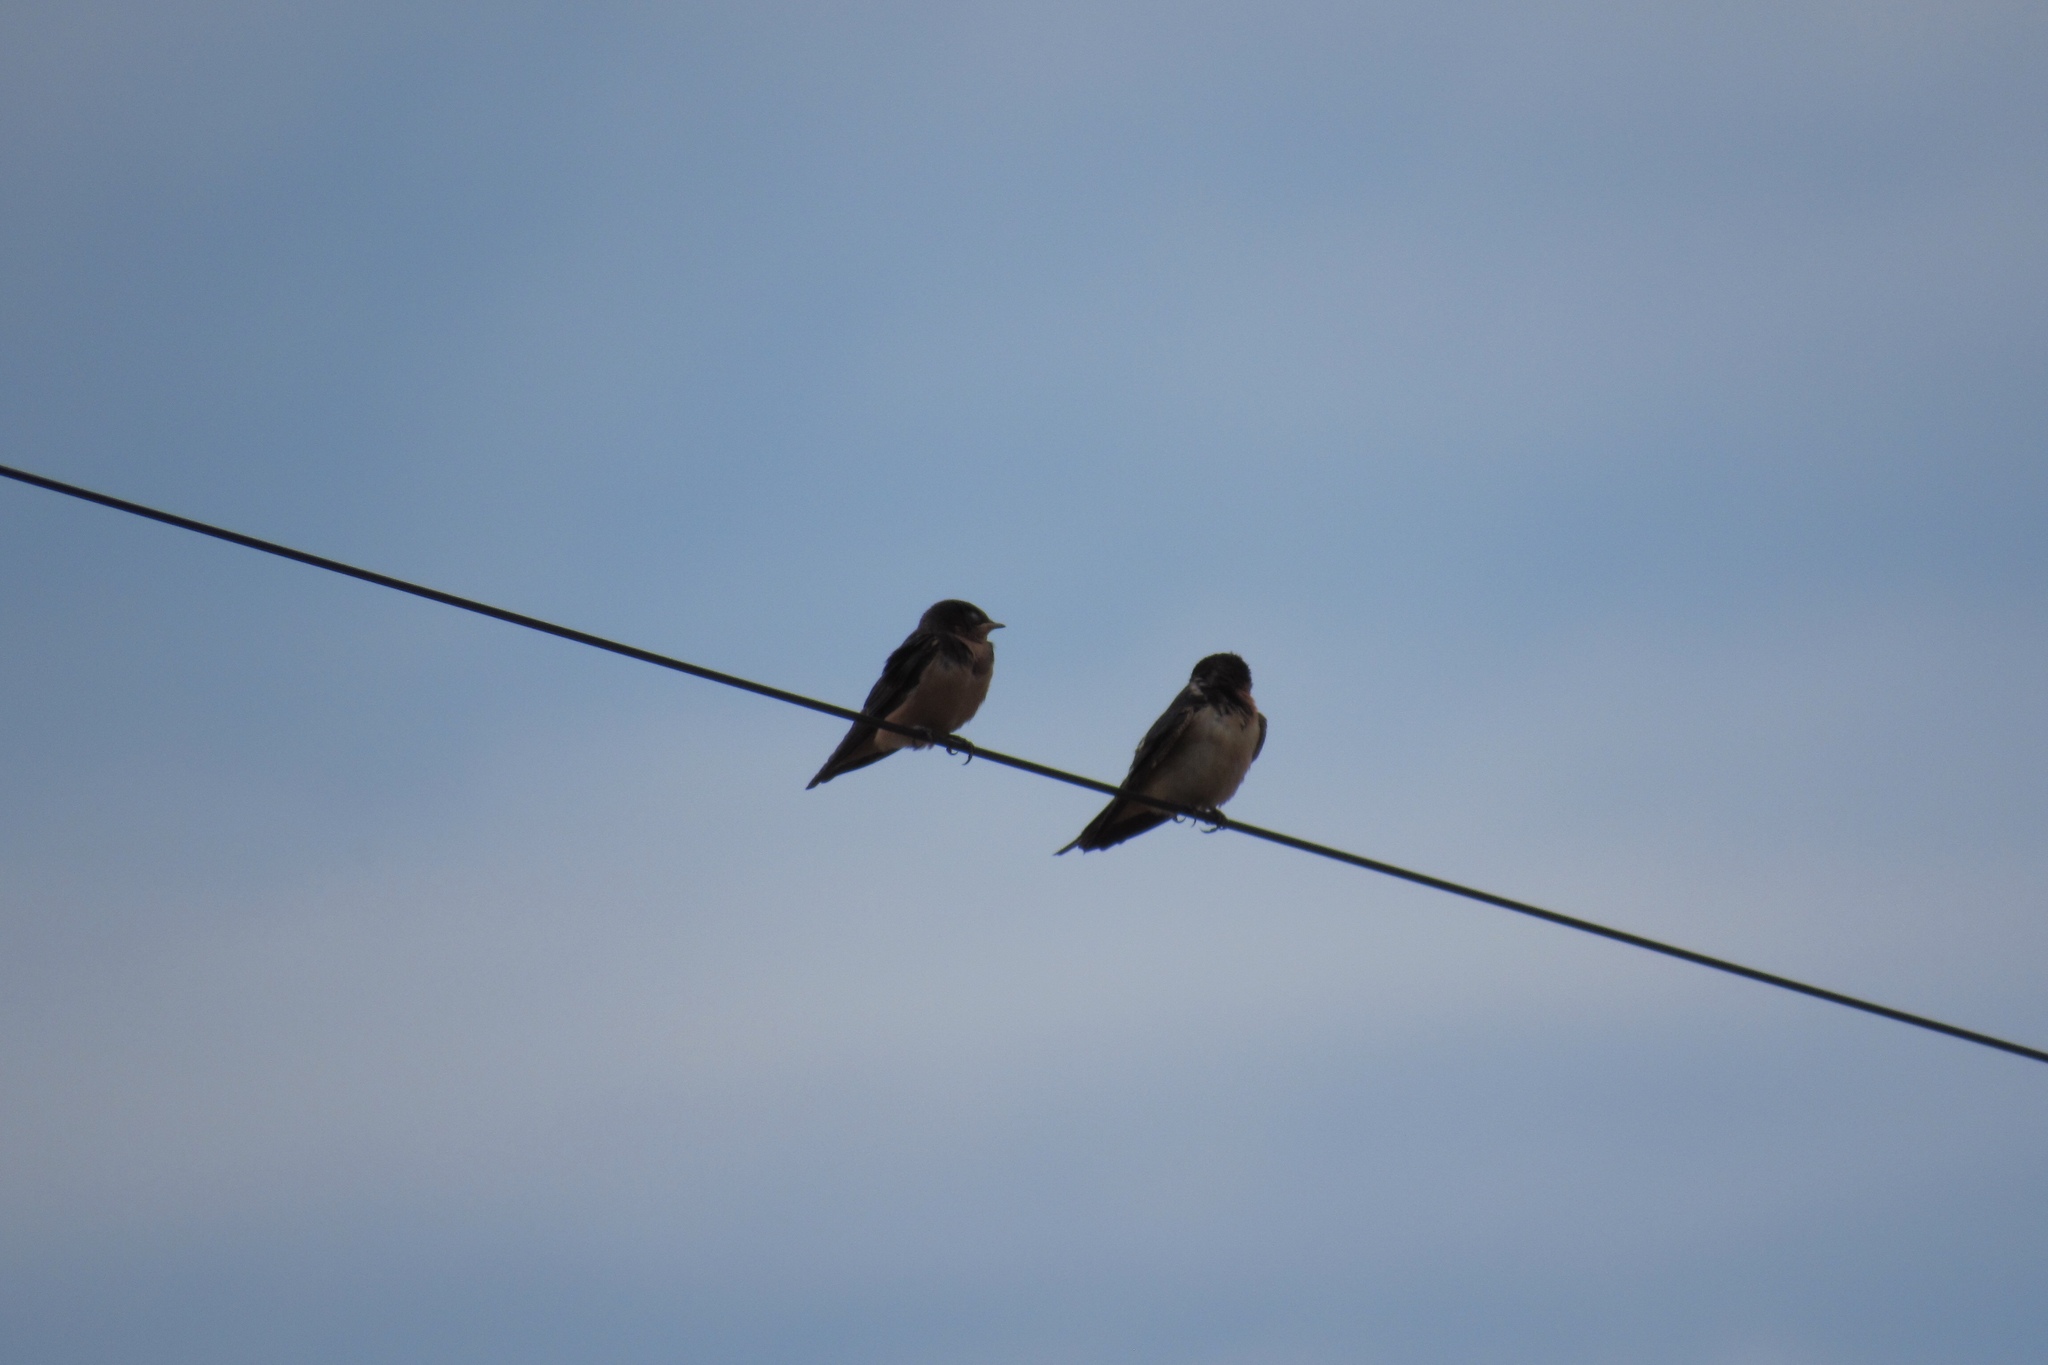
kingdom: Animalia
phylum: Chordata
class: Aves
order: Passeriformes
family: Hirundinidae
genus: Hirundo
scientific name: Hirundo rustica
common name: Barn swallow
